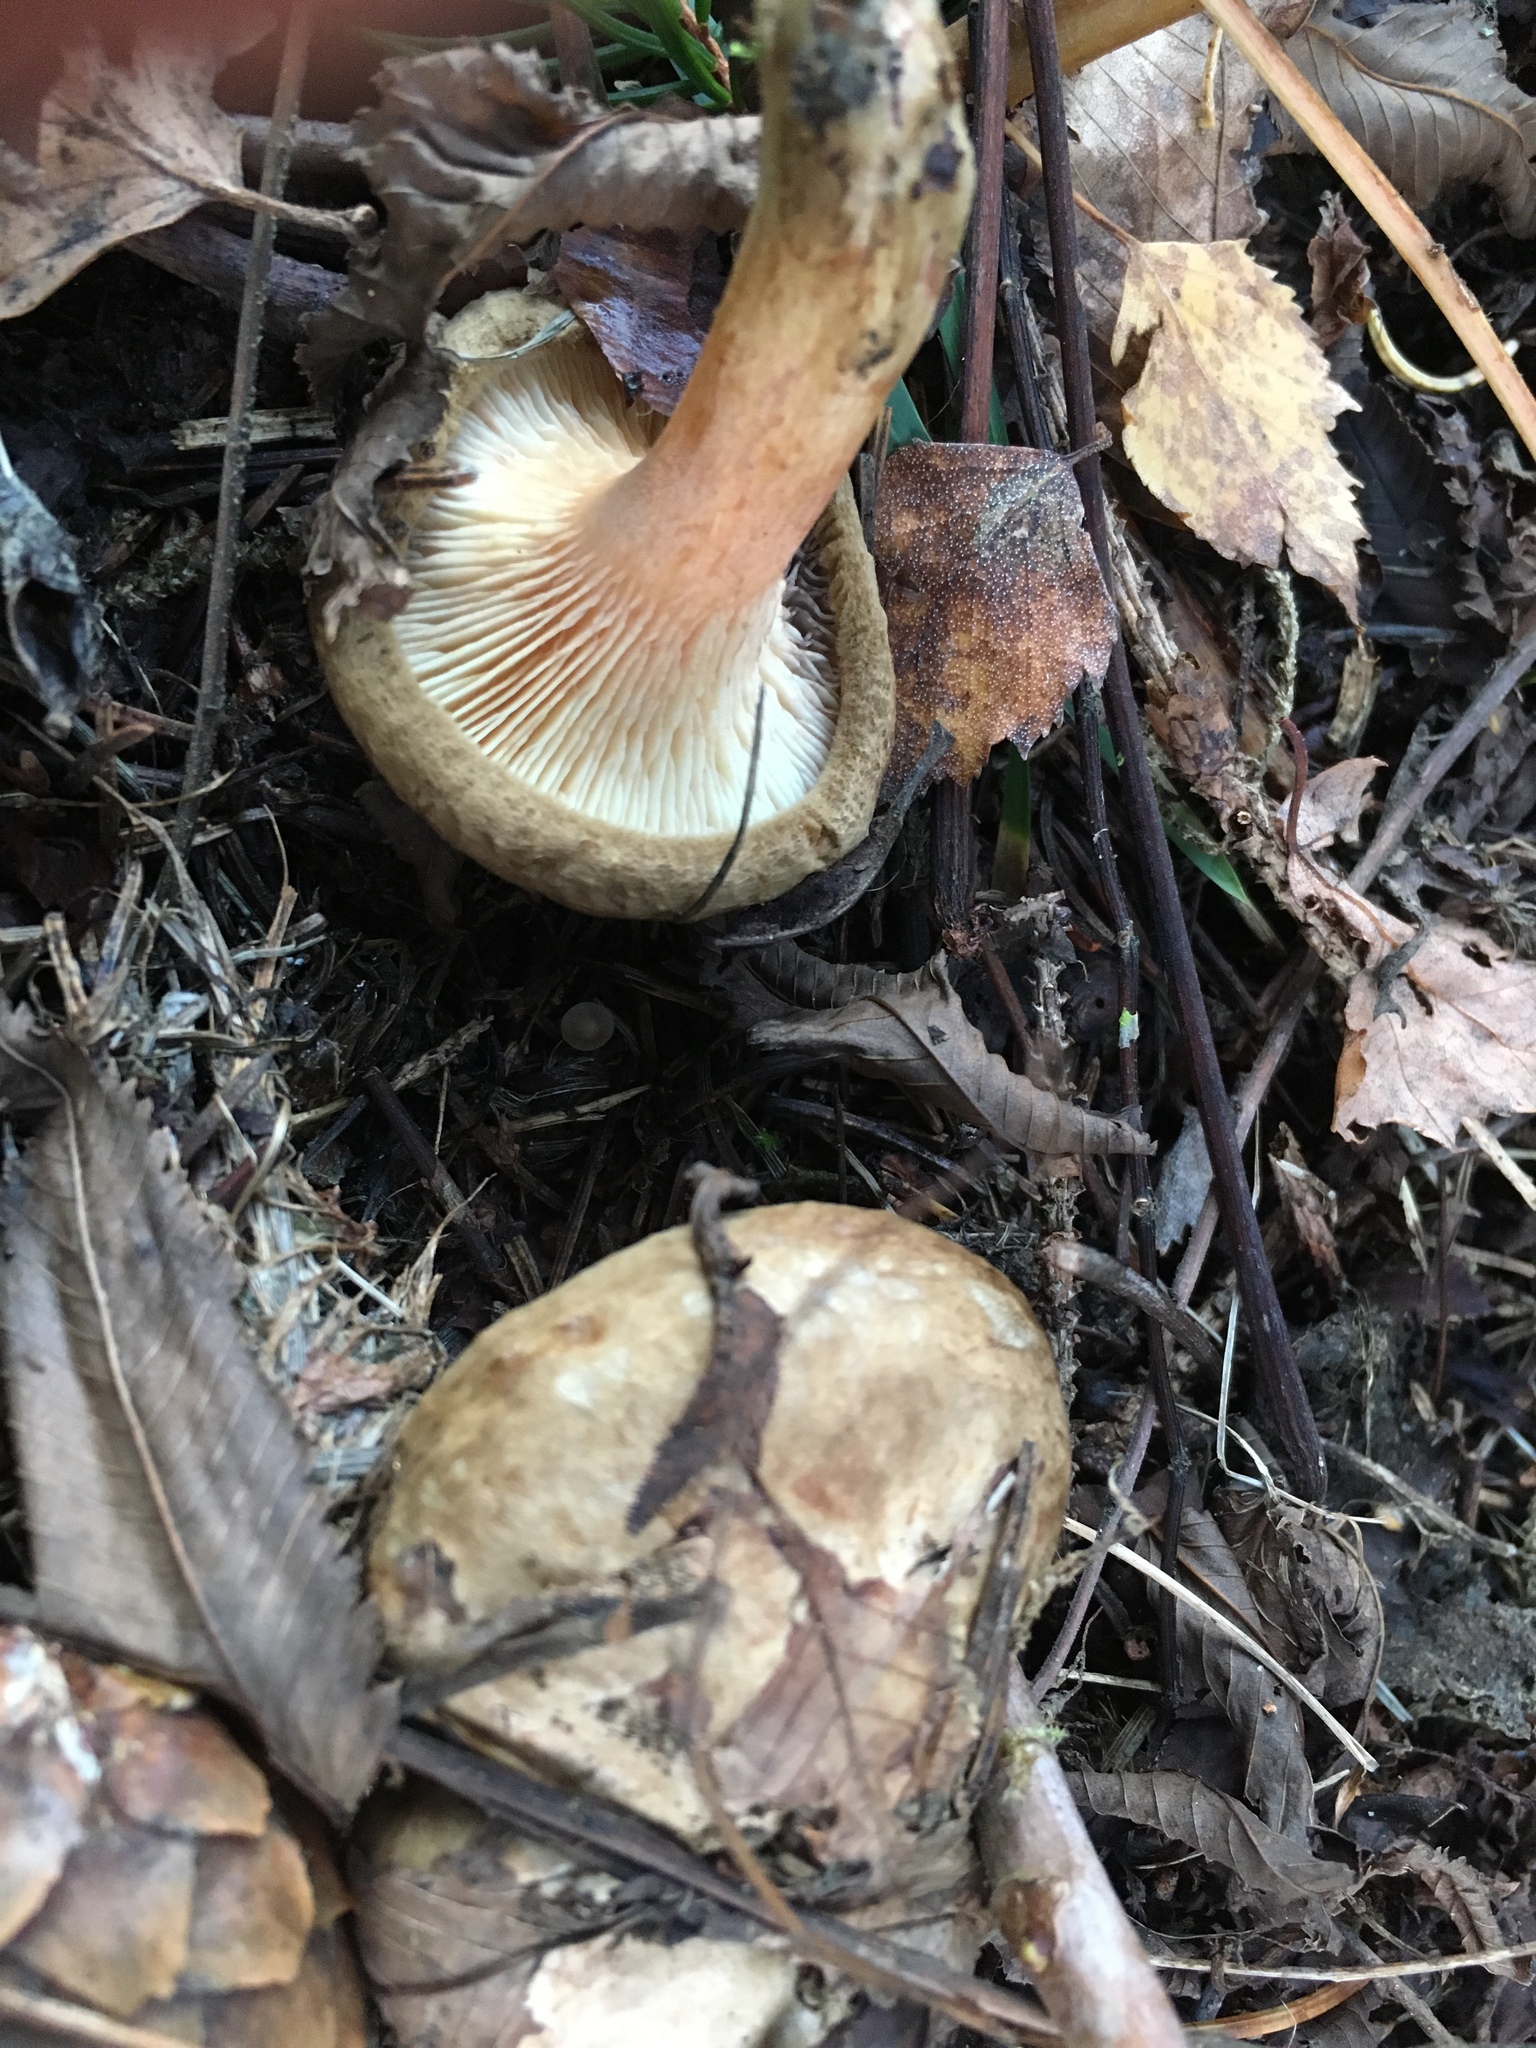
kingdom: Fungi
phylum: Basidiomycota
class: Agaricomycetes
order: Boletales
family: Paxillaceae
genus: Paxillus
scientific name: Paxillus involutus
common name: Brown roll rim
